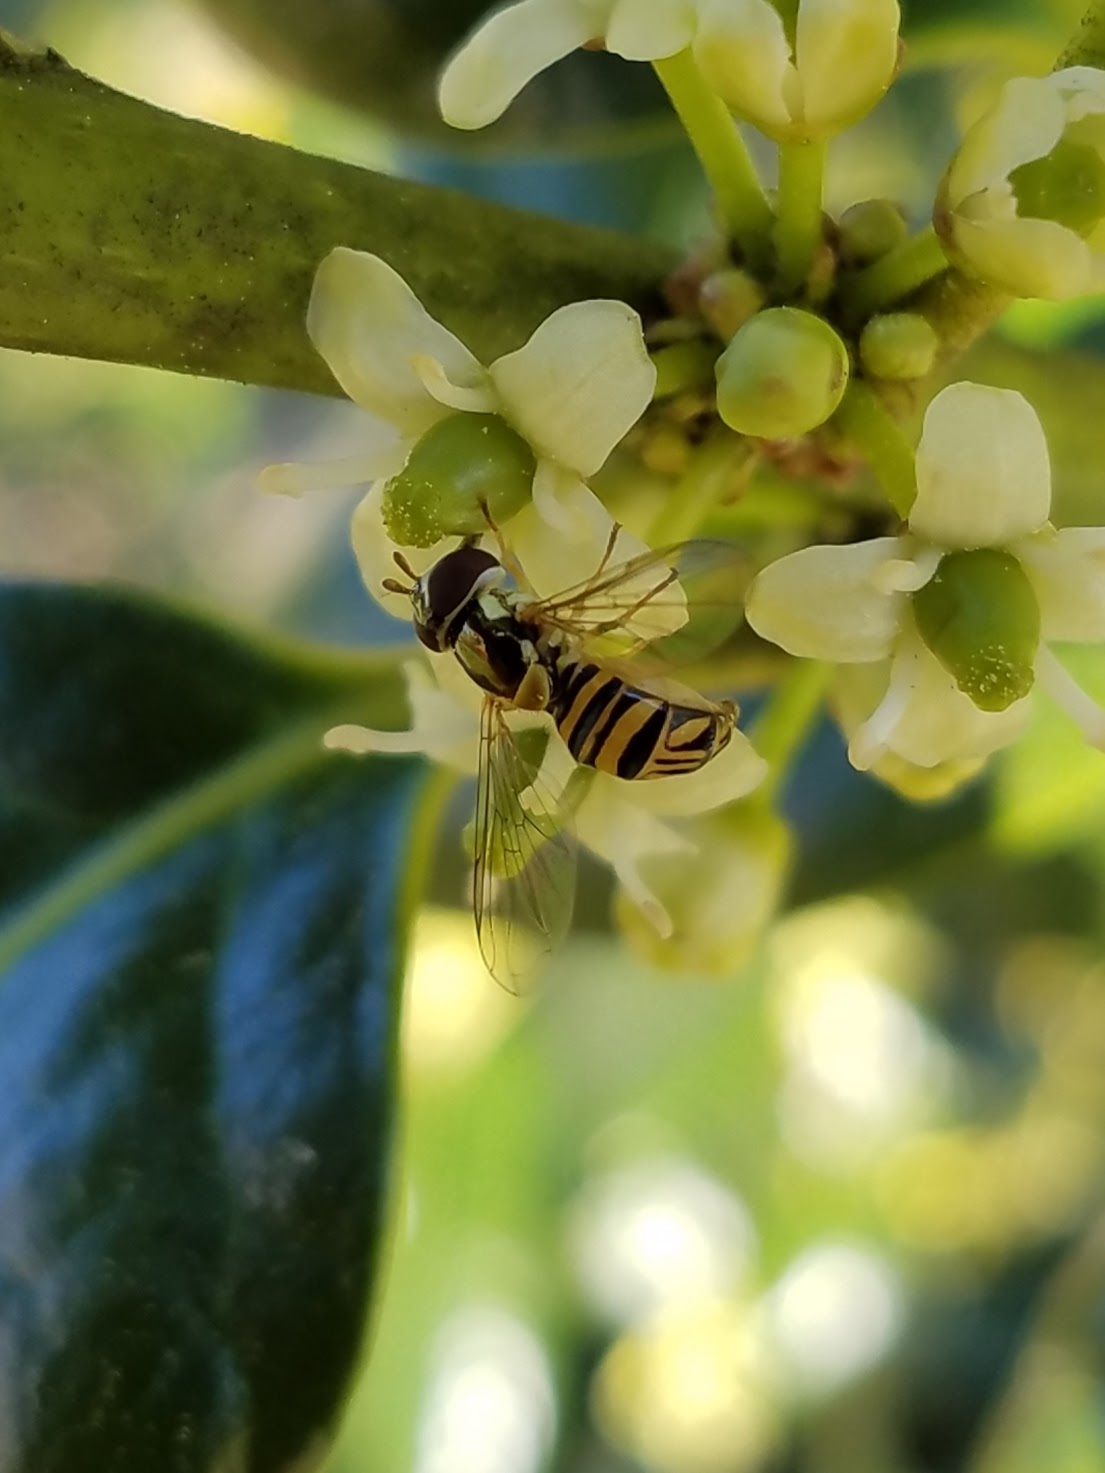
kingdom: Animalia
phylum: Arthropoda
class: Insecta
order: Diptera
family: Syrphidae
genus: Allograpta
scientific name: Allograpta obliqua
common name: Common oblique syrphid
